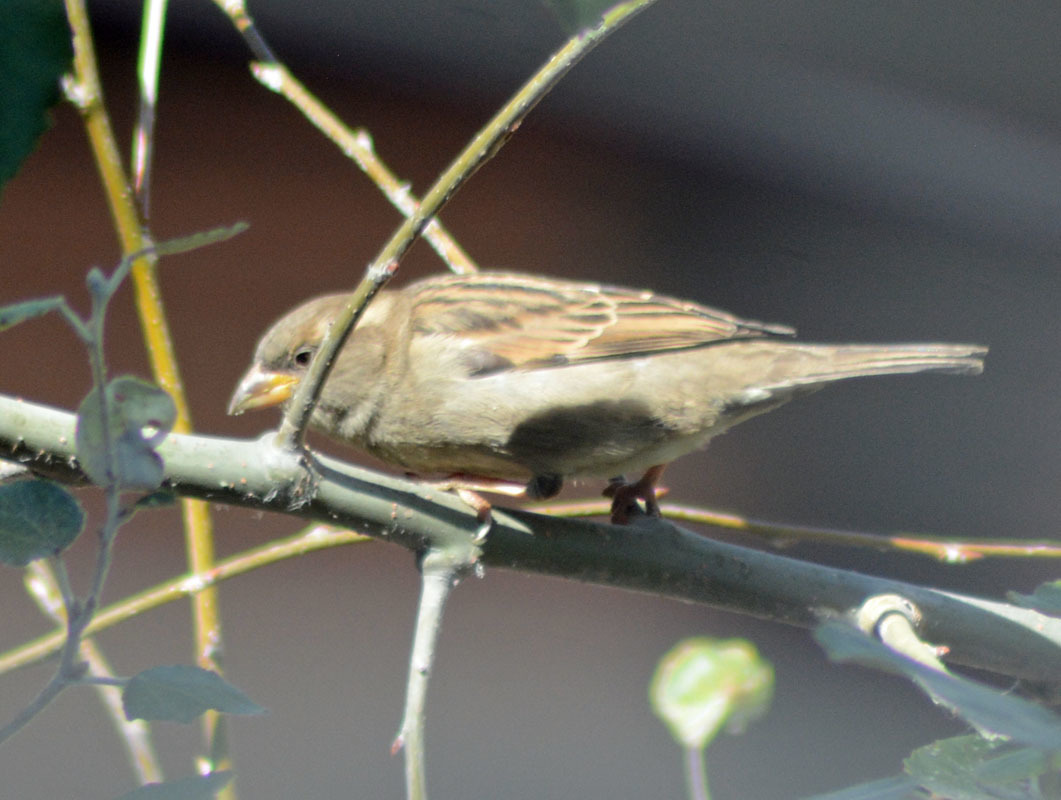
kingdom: Animalia
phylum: Chordata
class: Aves
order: Passeriformes
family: Passeridae
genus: Passer
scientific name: Passer domesticus
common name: House sparrow
